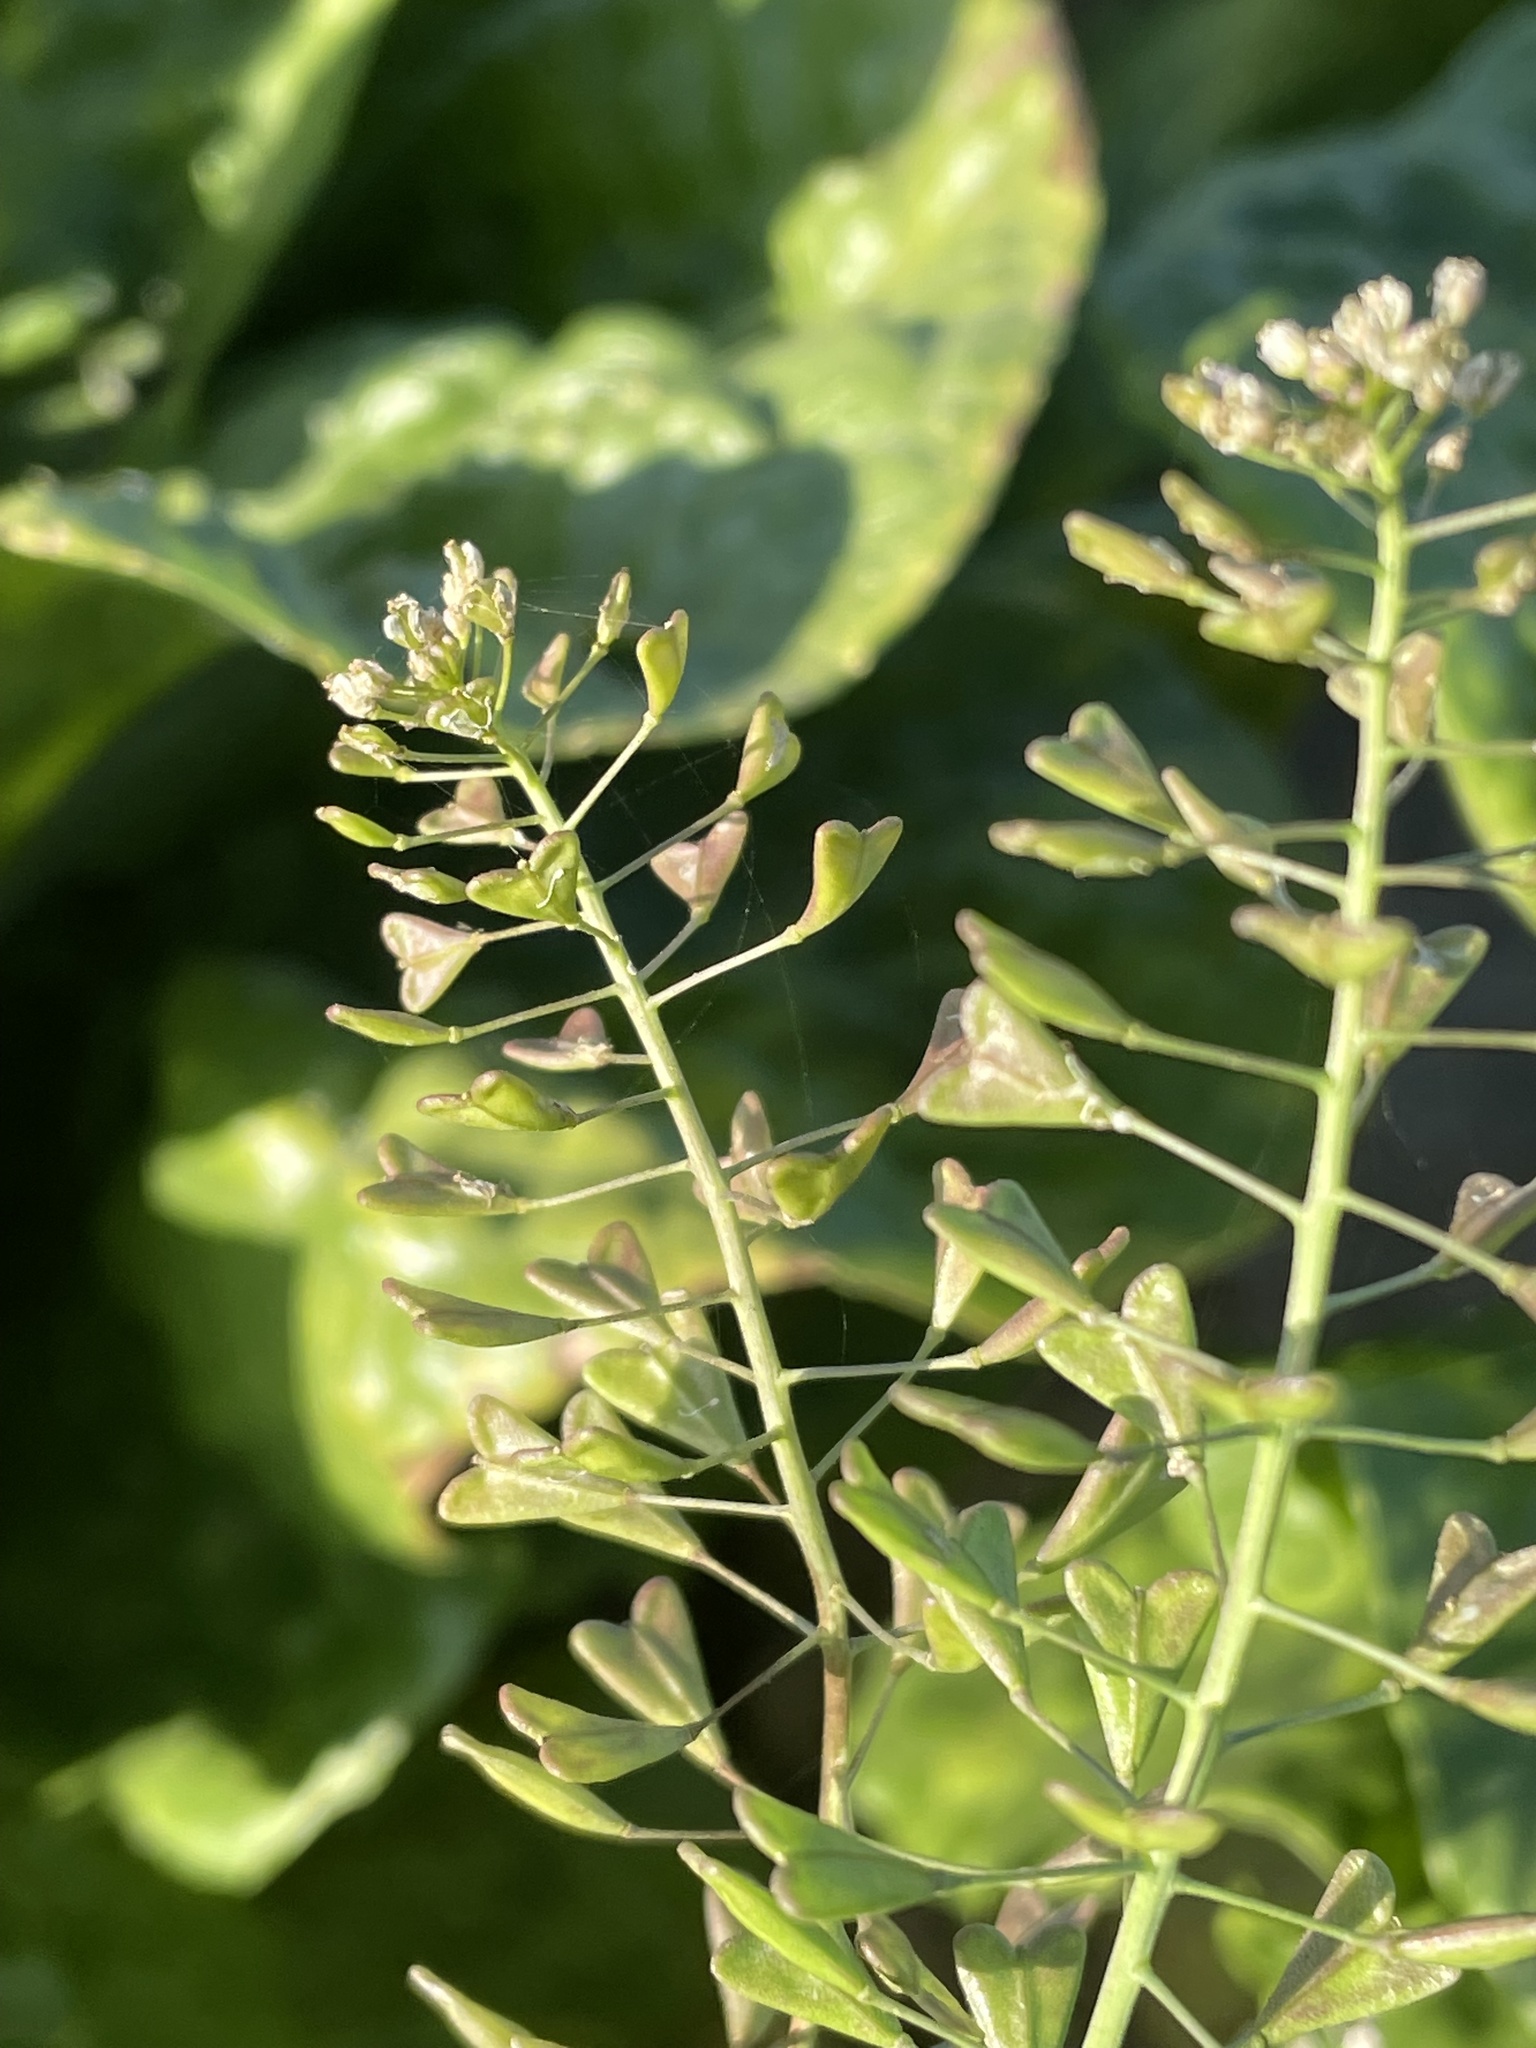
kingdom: Plantae
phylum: Tracheophyta
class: Magnoliopsida
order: Brassicales
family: Brassicaceae
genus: Capsella
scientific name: Capsella bursa-pastoris
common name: Shepherd's purse
